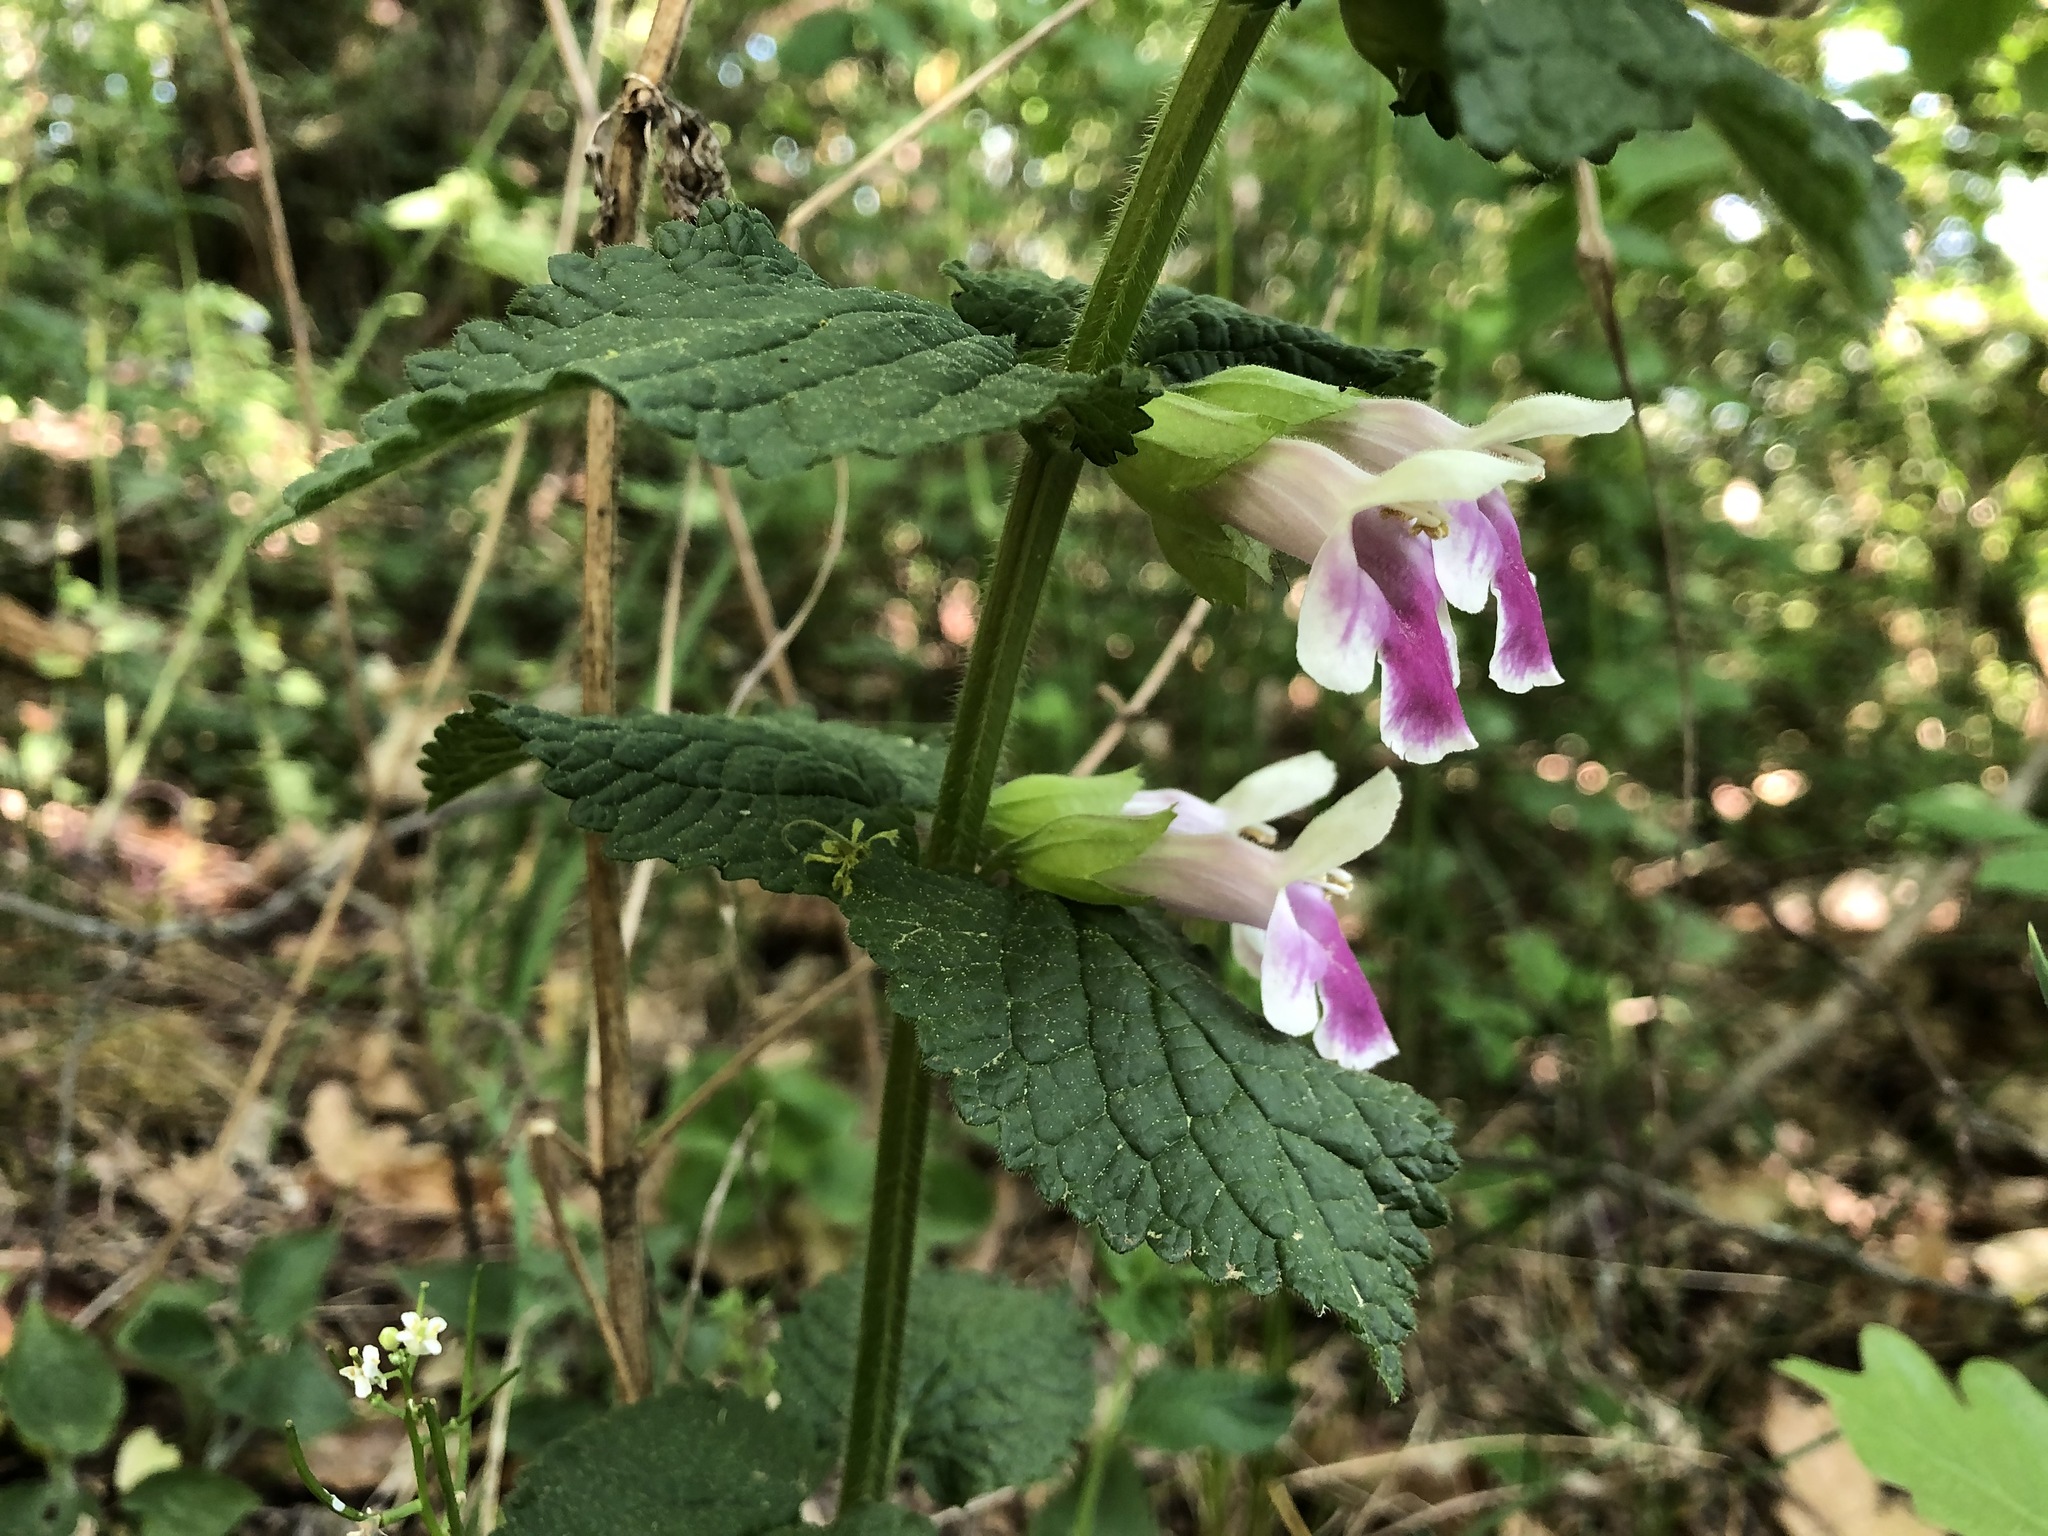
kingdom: Plantae
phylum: Tracheophyta
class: Magnoliopsida
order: Lamiales
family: Lamiaceae
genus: Melittis
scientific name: Melittis melissophyllum
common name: Bastard balm
